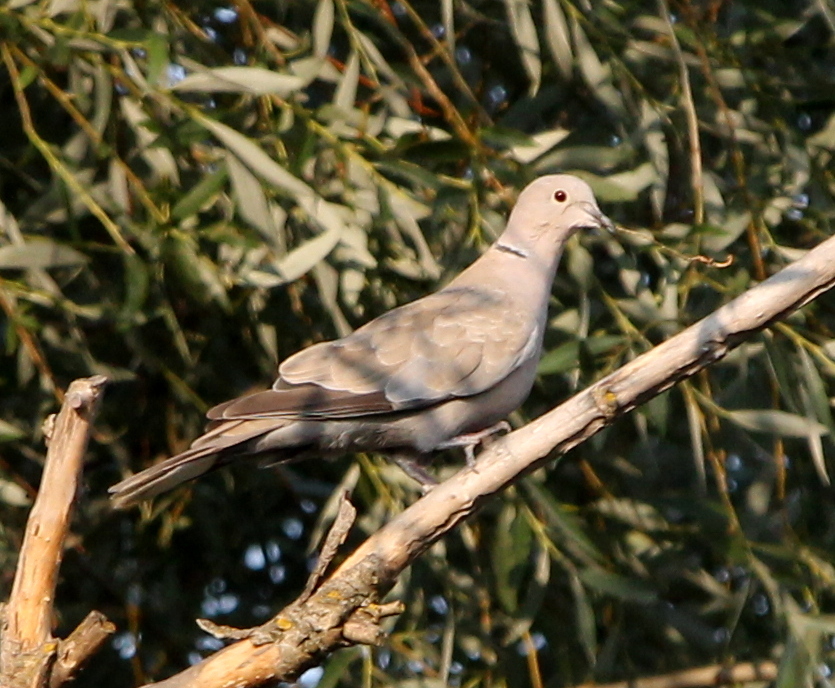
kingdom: Animalia
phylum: Chordata
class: Aves
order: Columbiformes
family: Columbidae
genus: Streptopelia
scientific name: Streptopelia decaocto
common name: Eurasian collared dove
